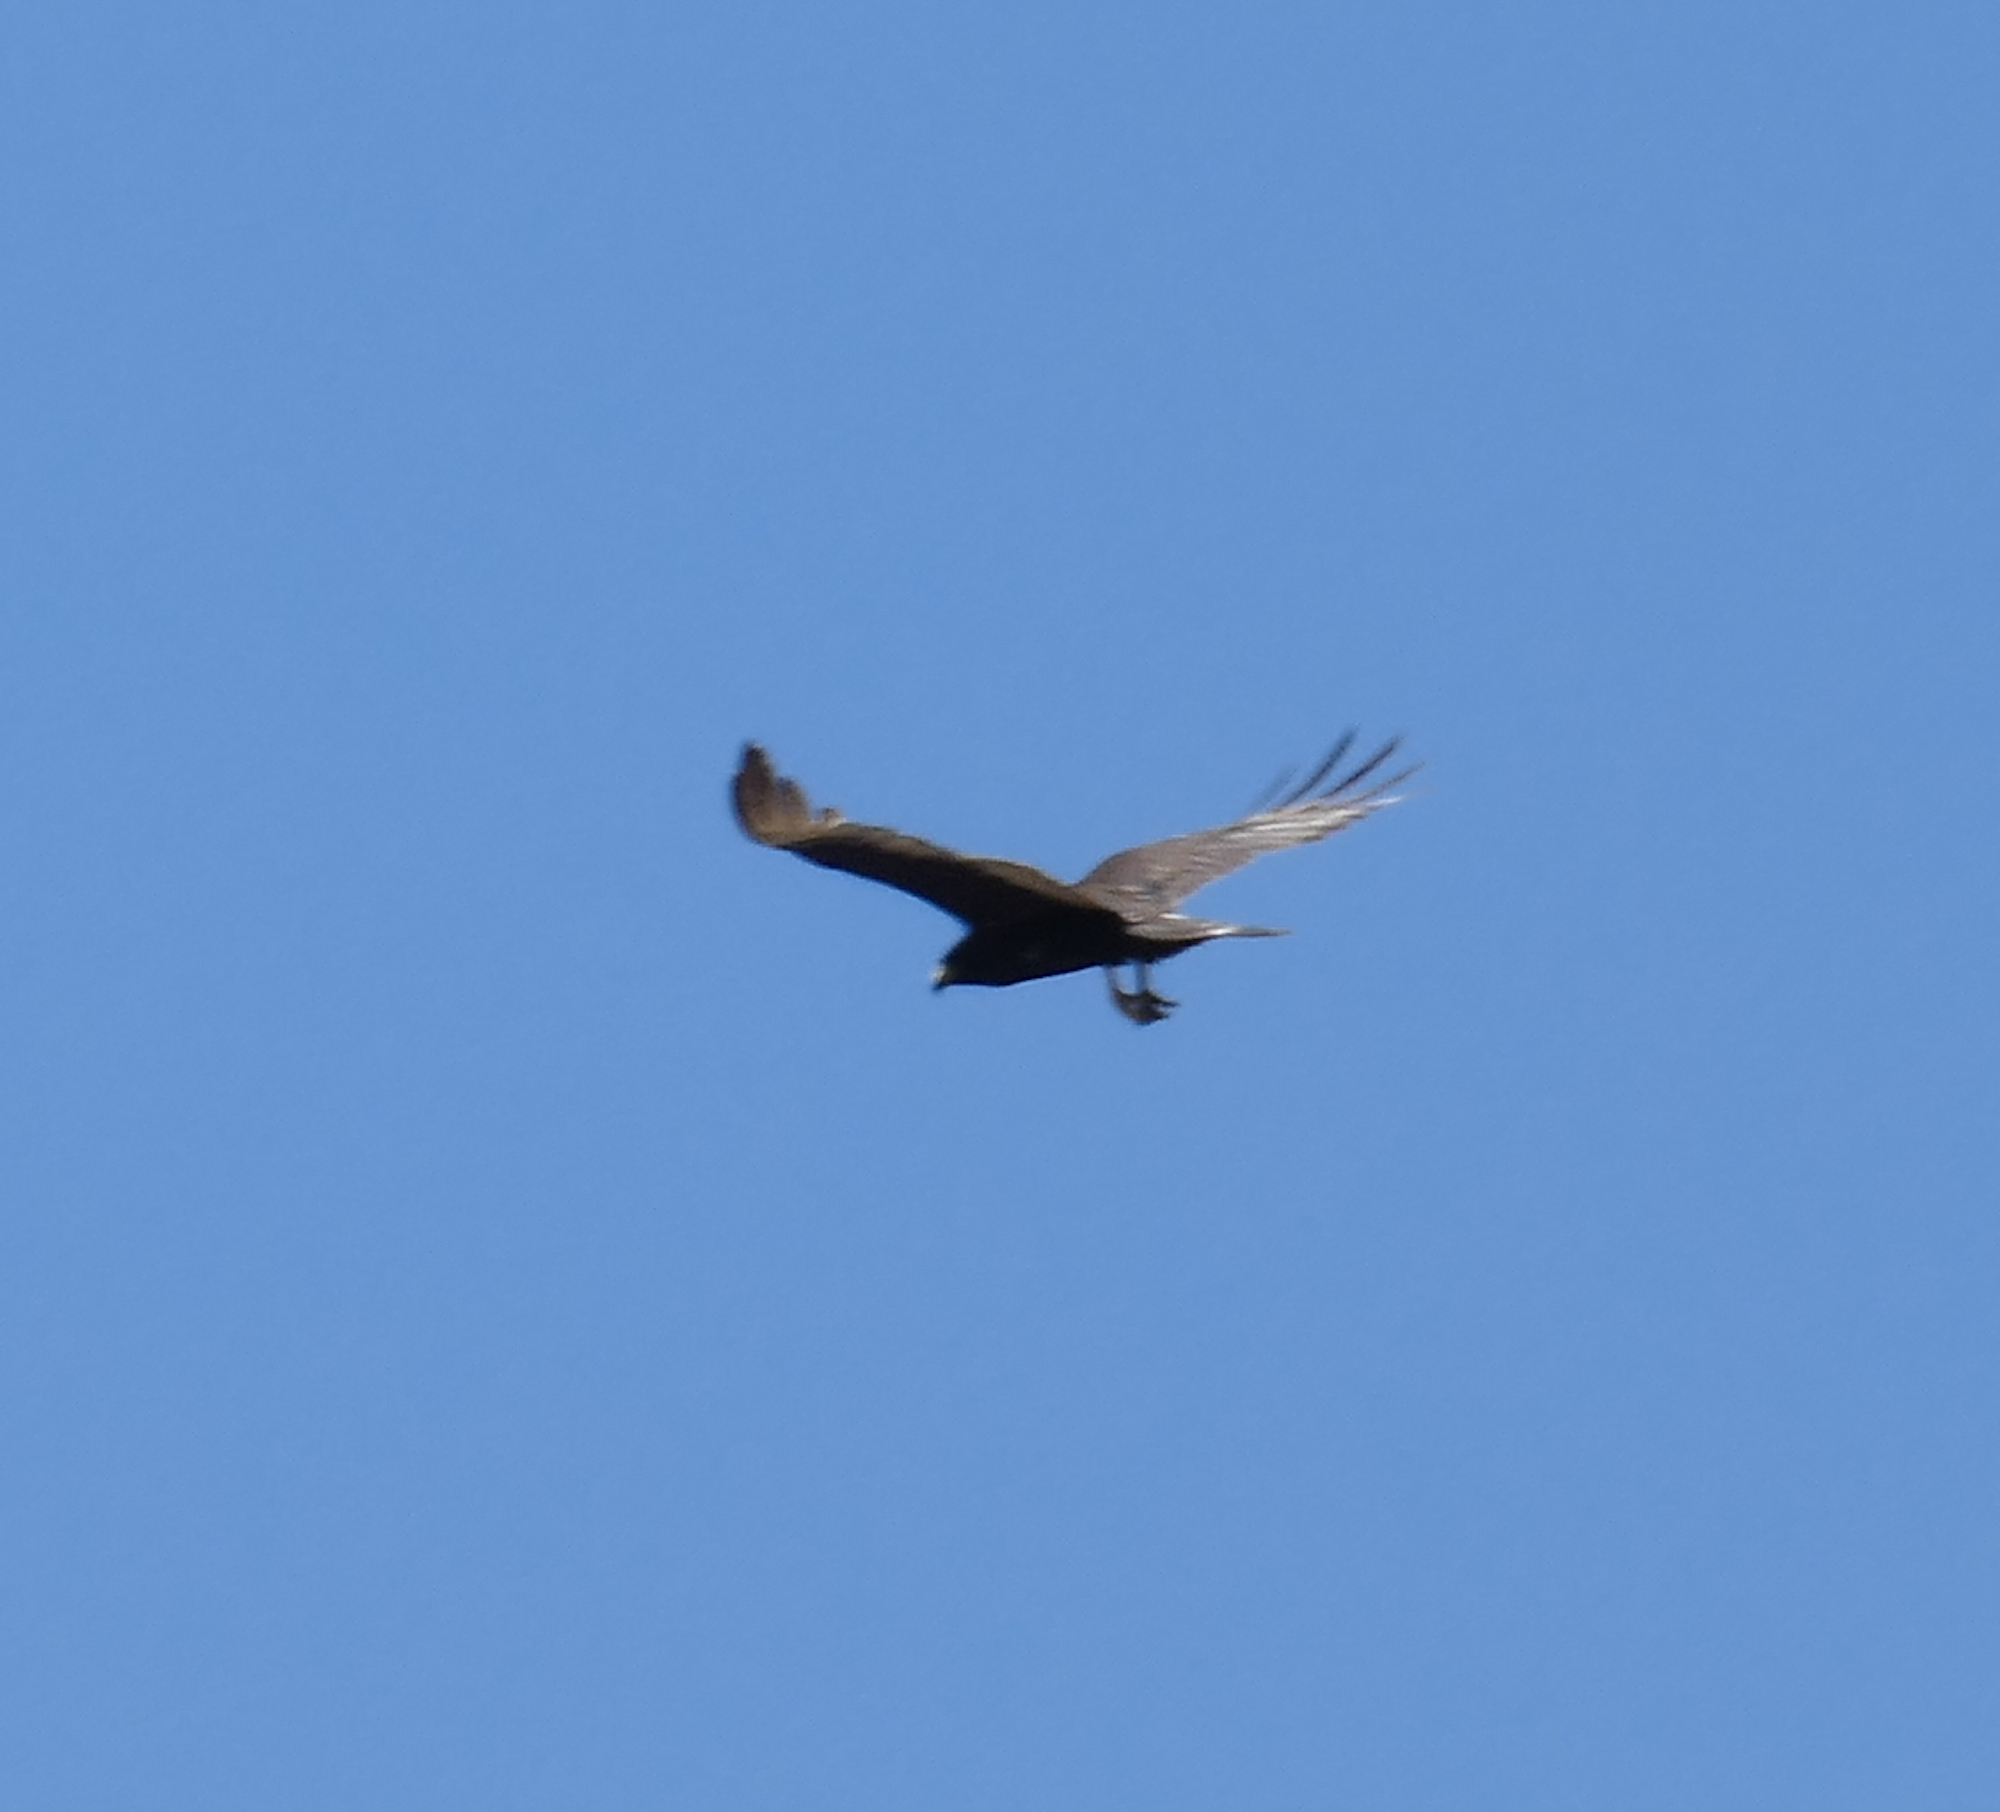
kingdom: Animalia
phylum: Chordata
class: Aves
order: Accipitriformes
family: Accipitridae
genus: Buteo
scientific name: Buteo albonotatus
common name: Zone-tailed hawk
